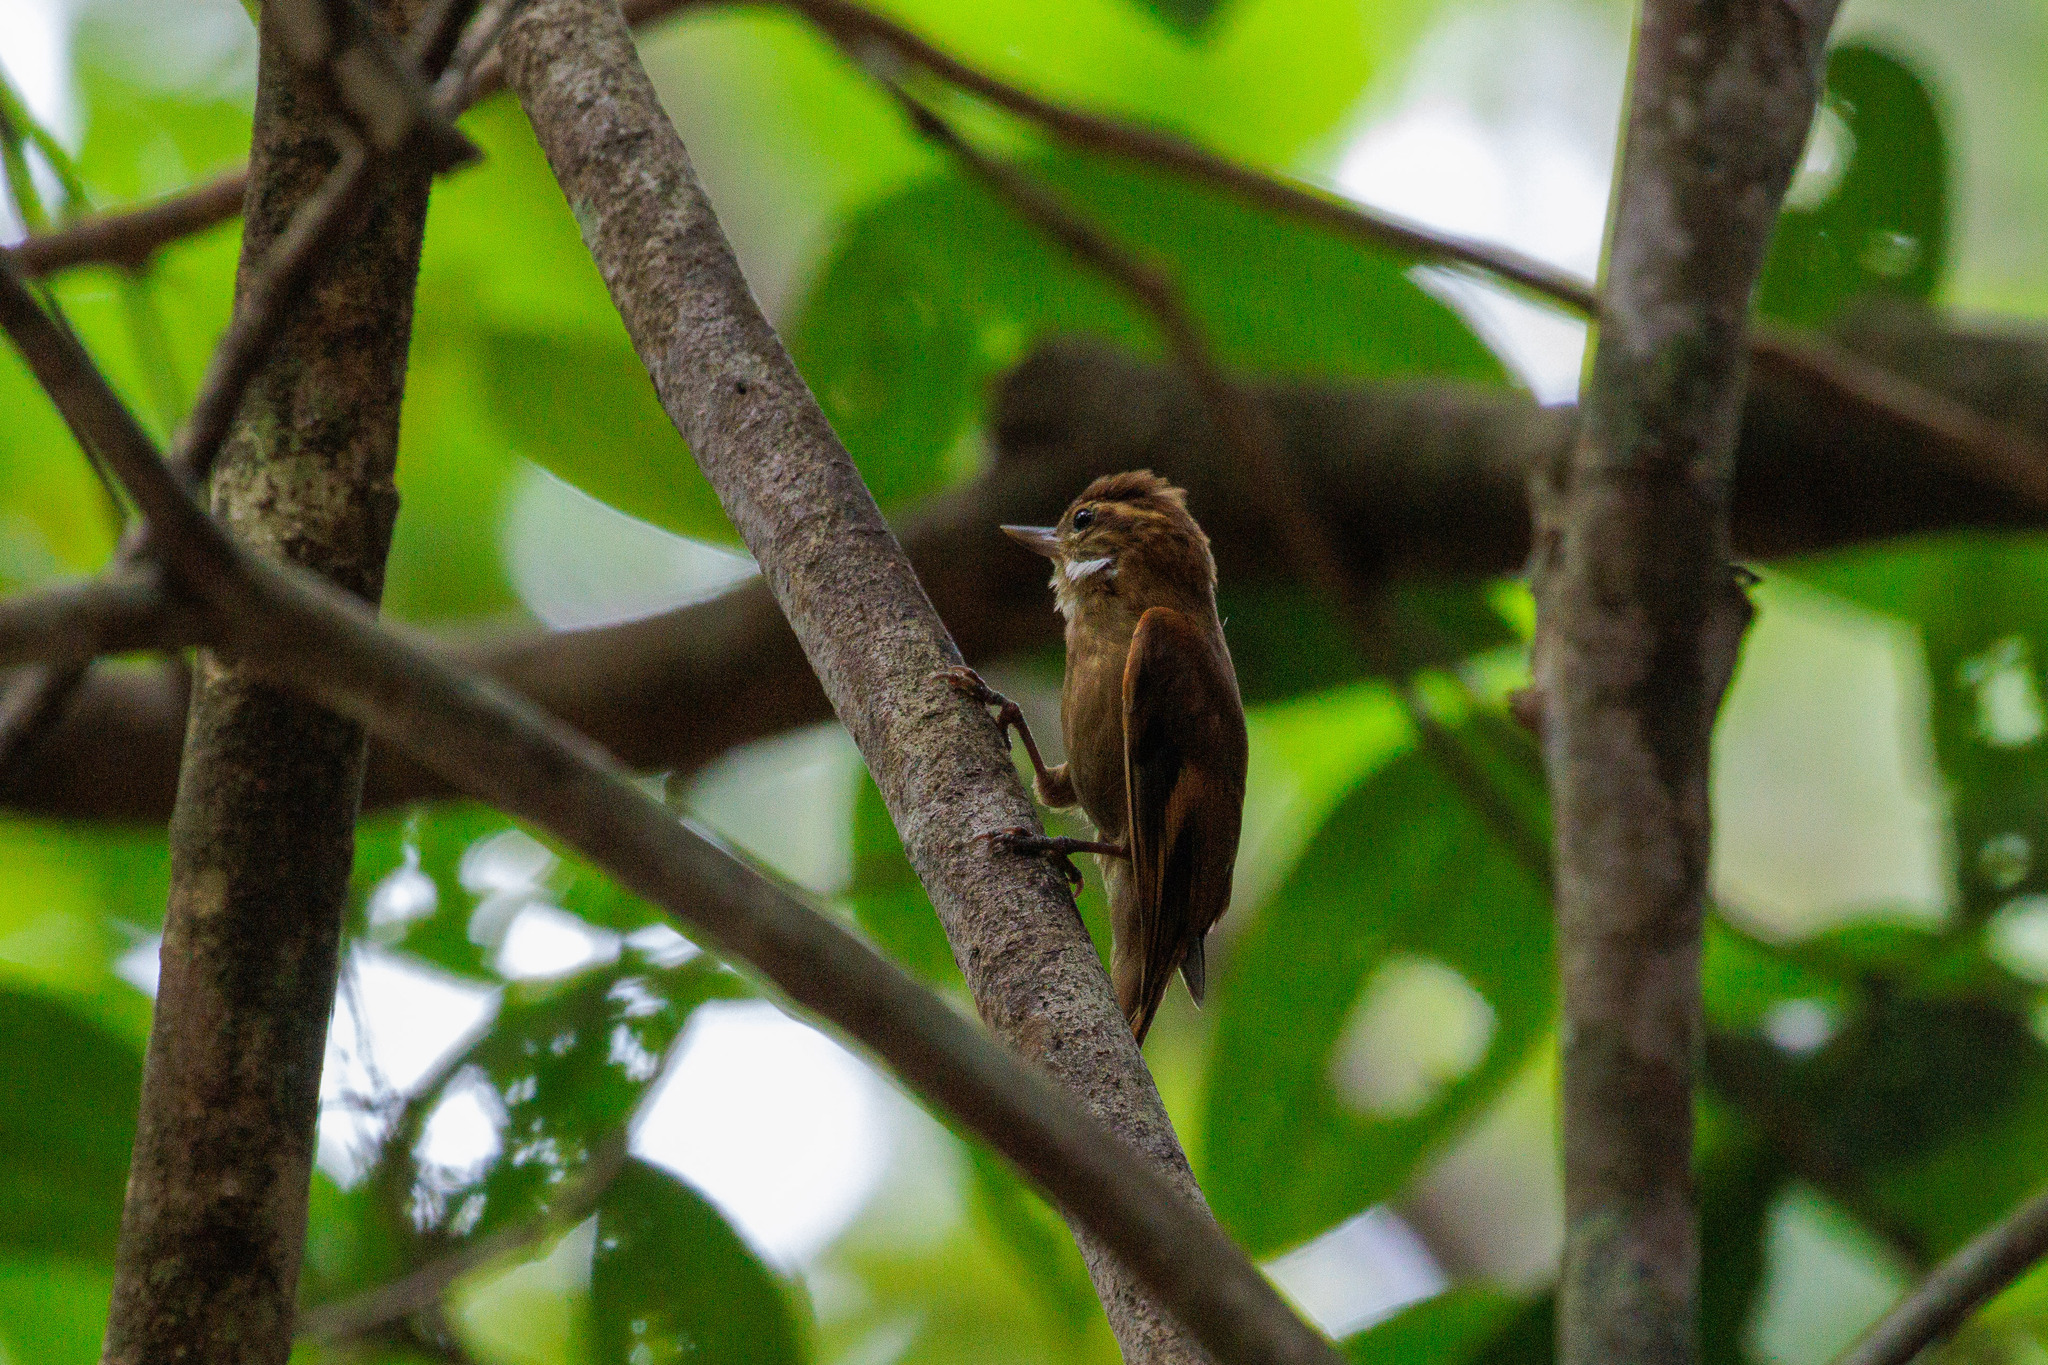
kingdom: Animalia
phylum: Chordata
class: Aves
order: Passeriformes
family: Furnariidae
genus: Xenops
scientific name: Xenops minutus
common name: Plain xenops
